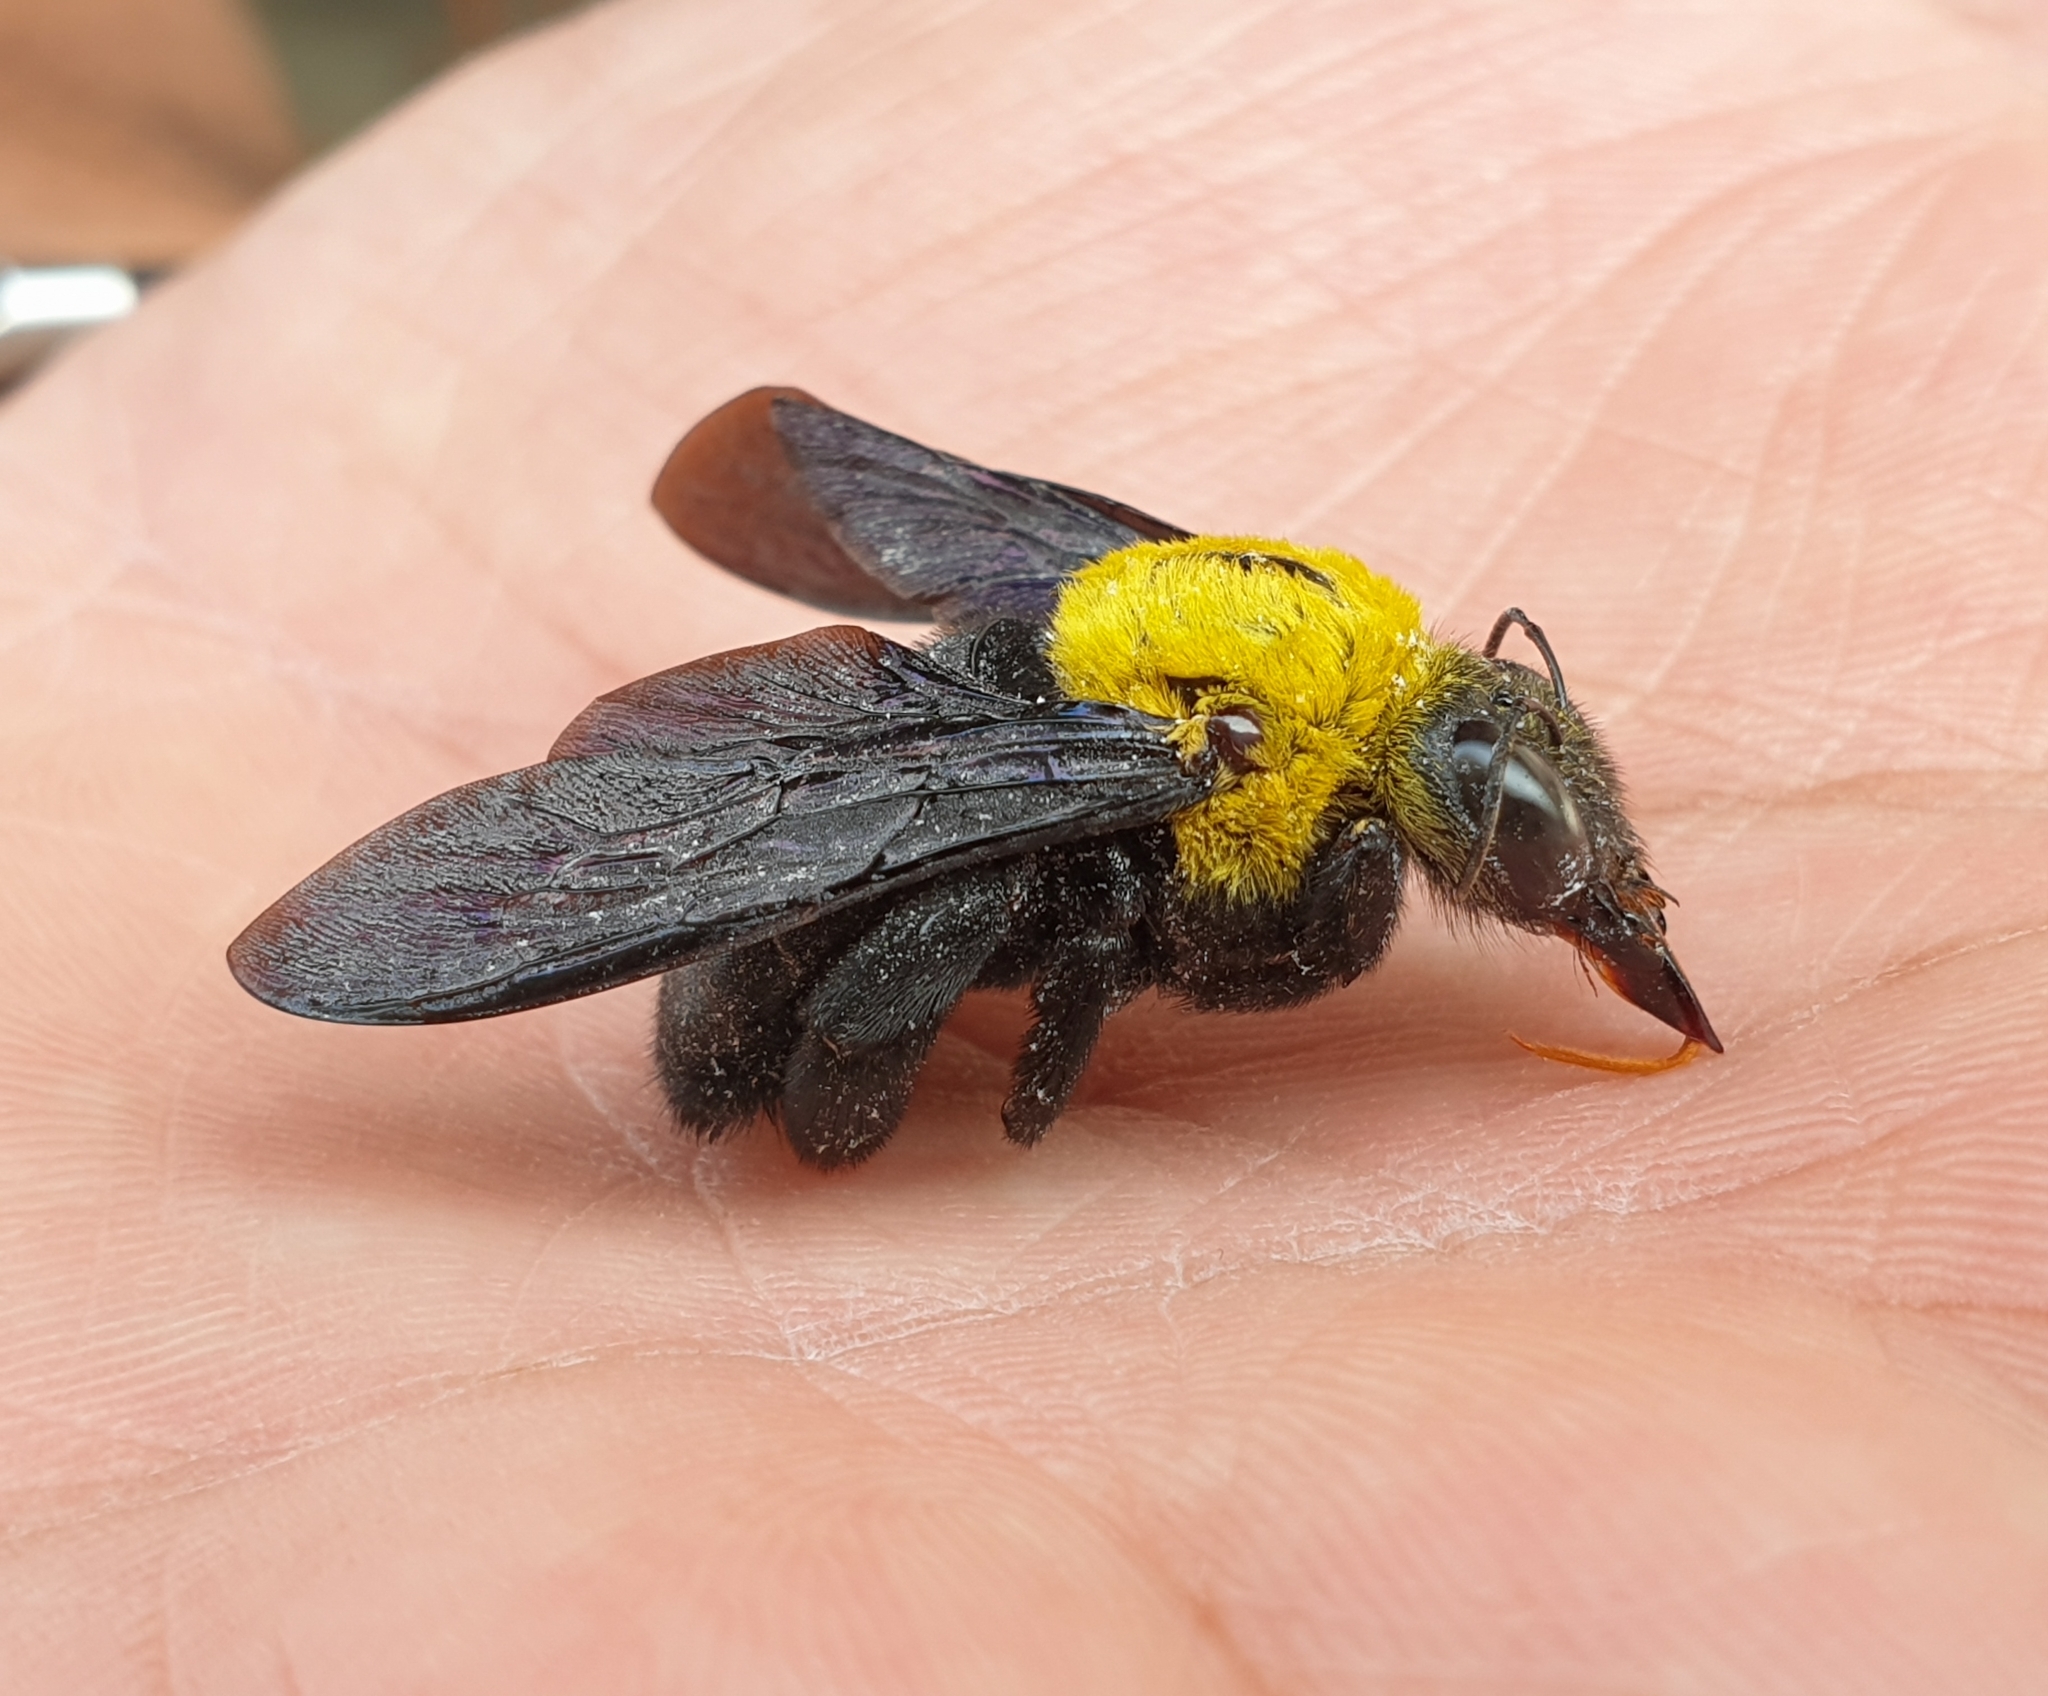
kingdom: Animalia
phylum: Arthropoda
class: Insecta
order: Hymenoptera
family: Apidae
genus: Xylocopa
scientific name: Xylocopa ruficornis
